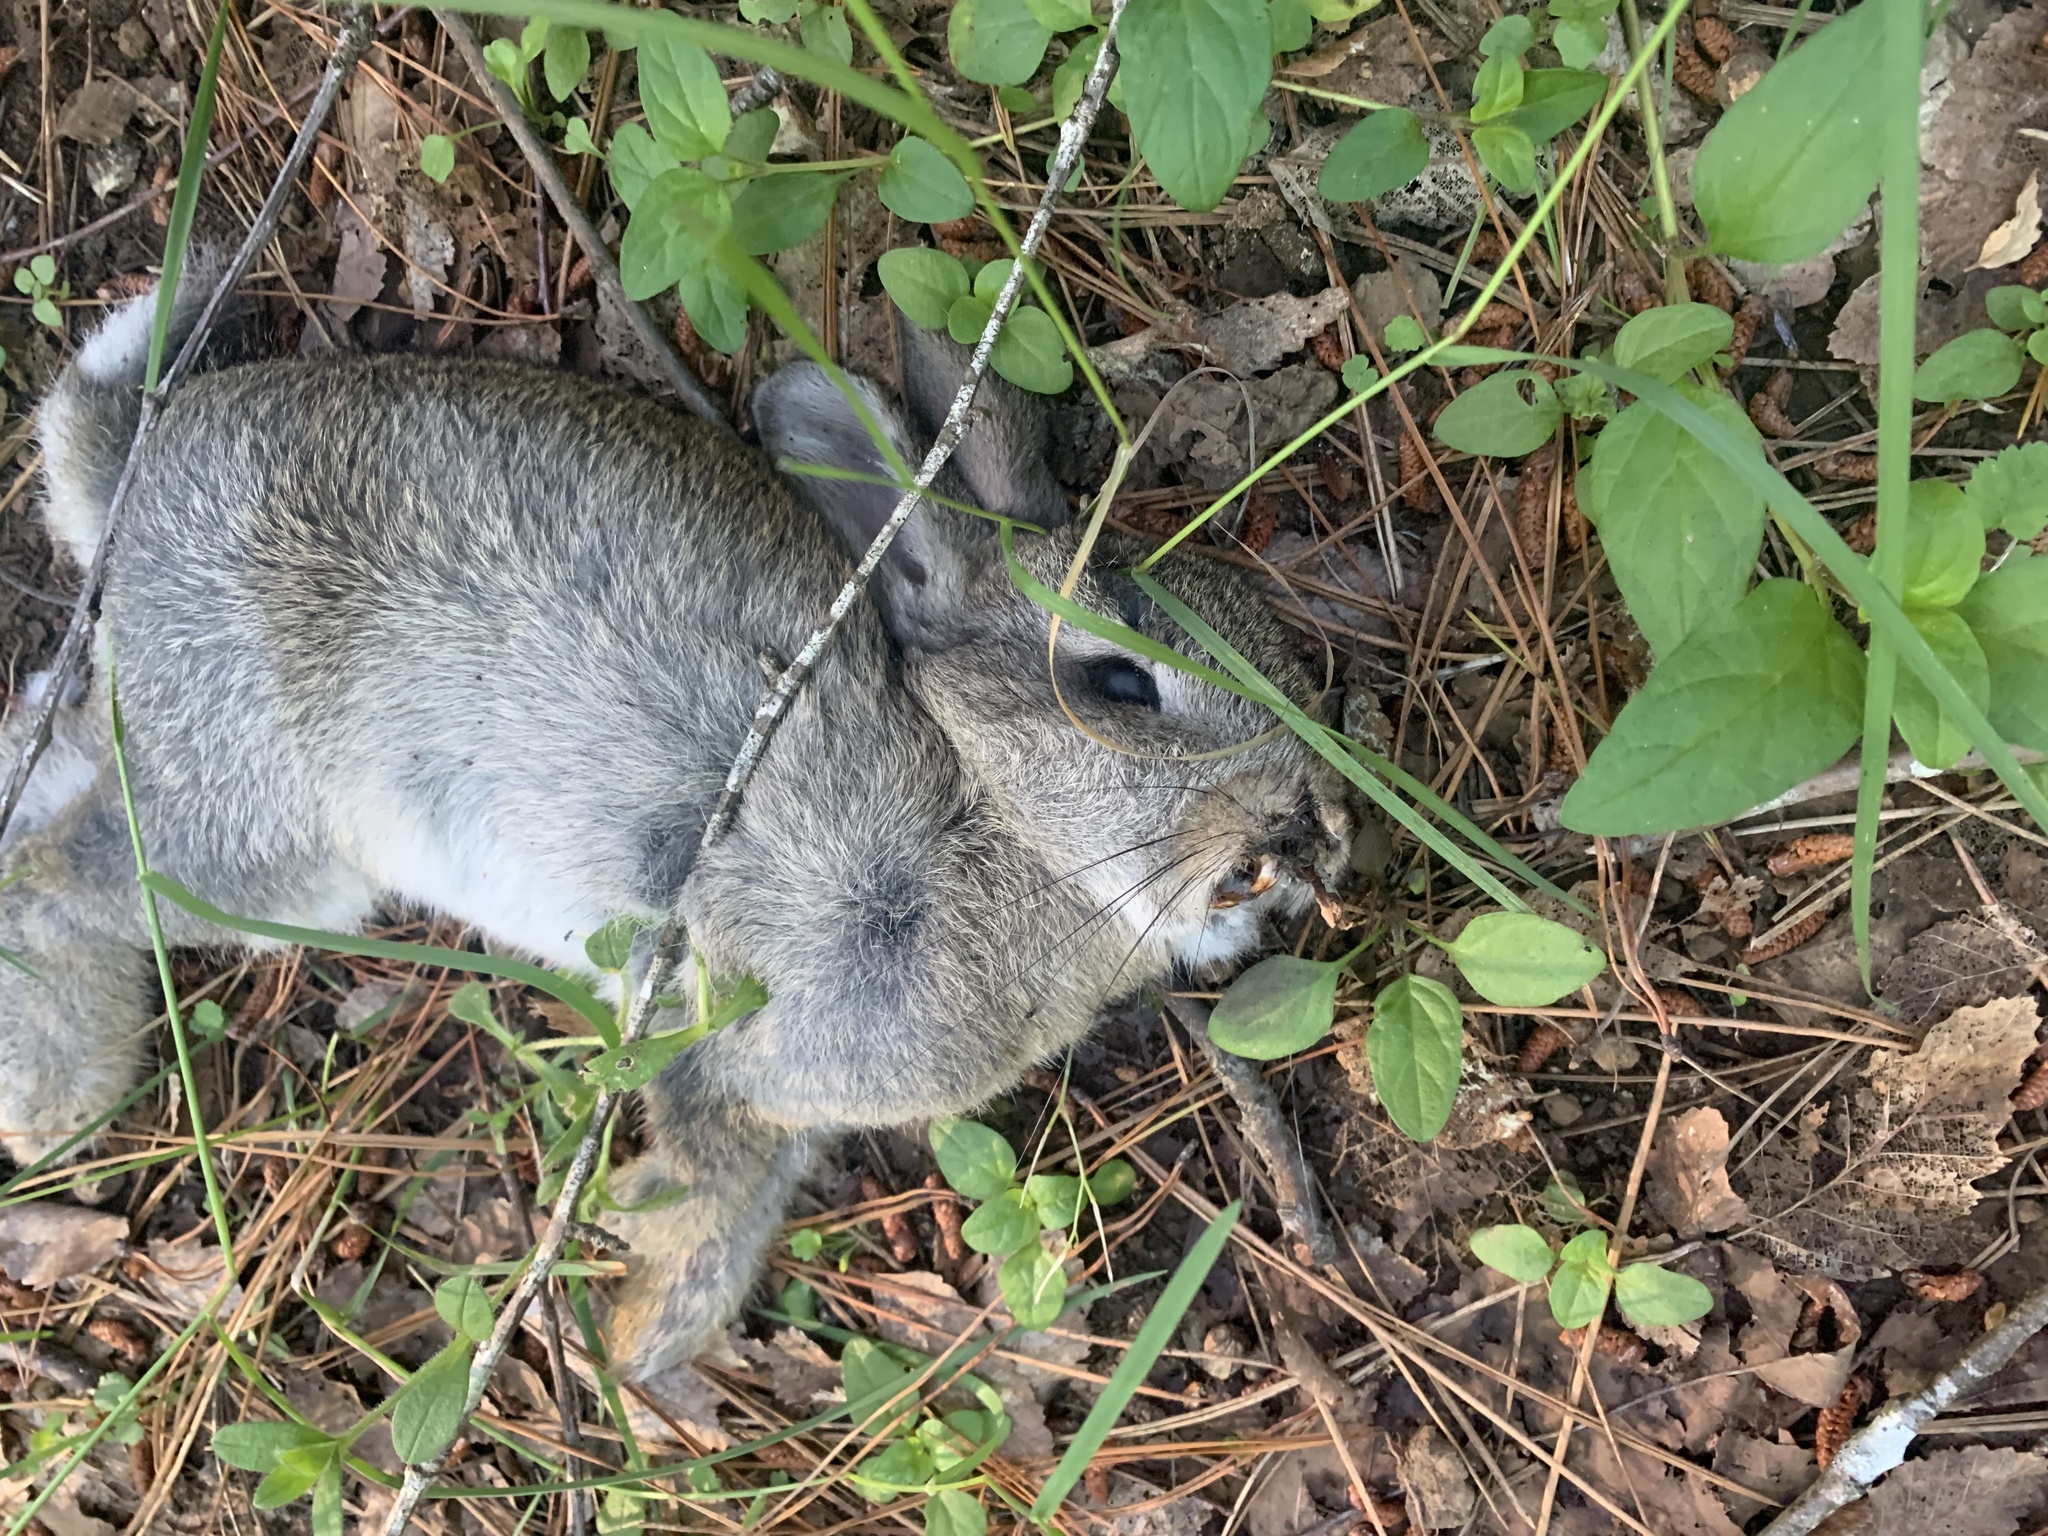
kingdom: Animalia
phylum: Chordata
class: Mammalia
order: Lagomorpha
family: Leporidae
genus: Oryctolagus
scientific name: Oryctolagus cuniculus
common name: European rabbit
